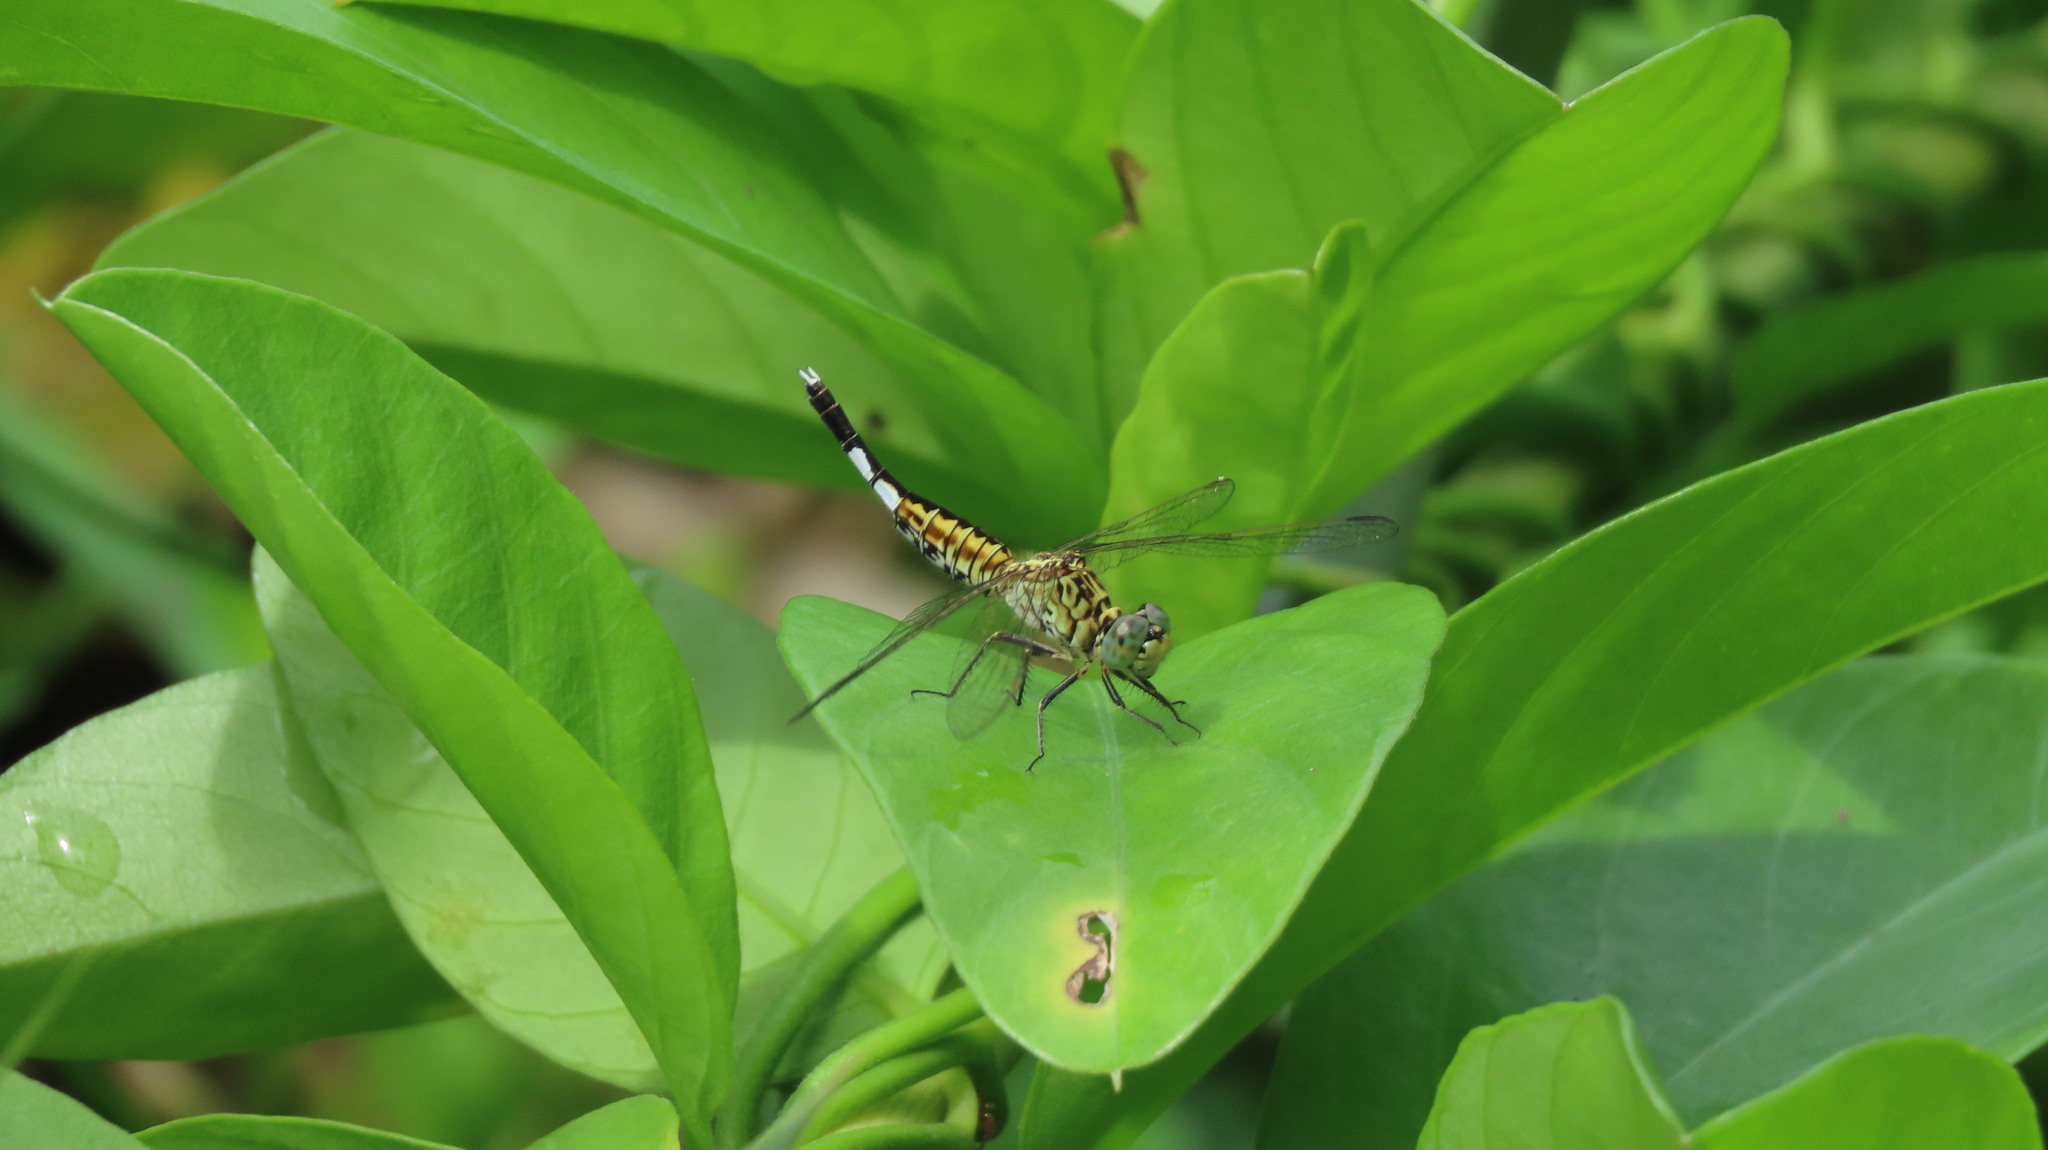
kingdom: Animalia
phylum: Arthropoda
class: Insecta
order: Odonata
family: Libellulidae
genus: Acisoma
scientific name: Acisoma panorpoides
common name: Asian pintail
